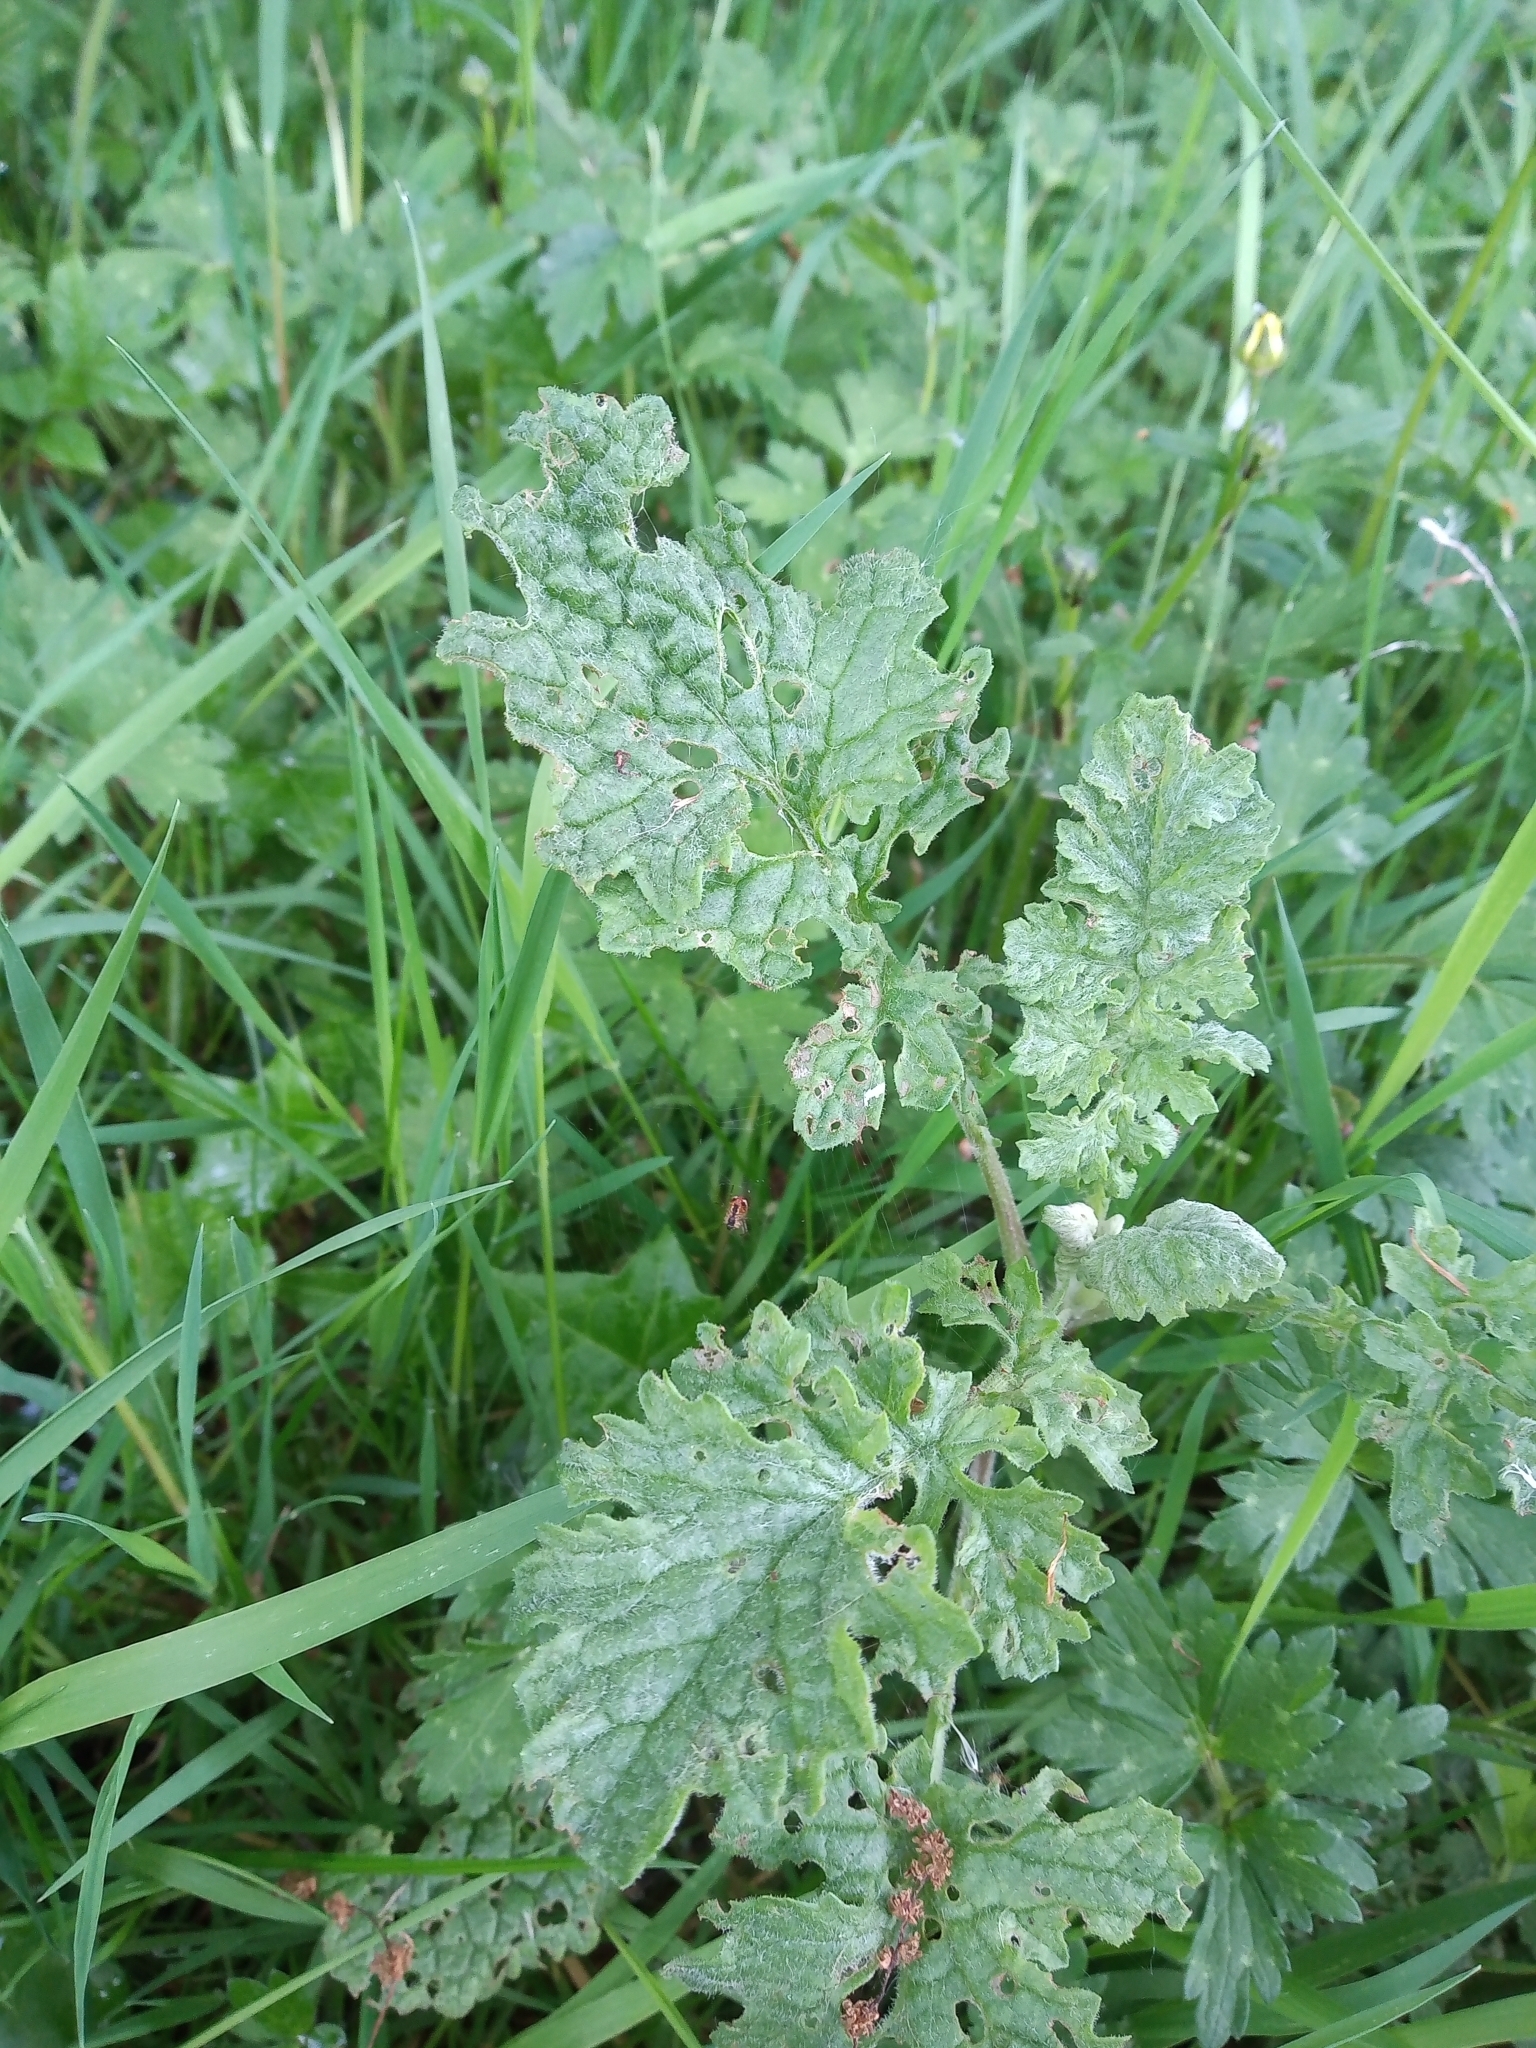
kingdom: Plantae
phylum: Tracheophyta
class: Magnoliopsida
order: Asterales
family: Asteraceae
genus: Jacobaea
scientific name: Jacobaea vulgaris
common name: Stinking willie
